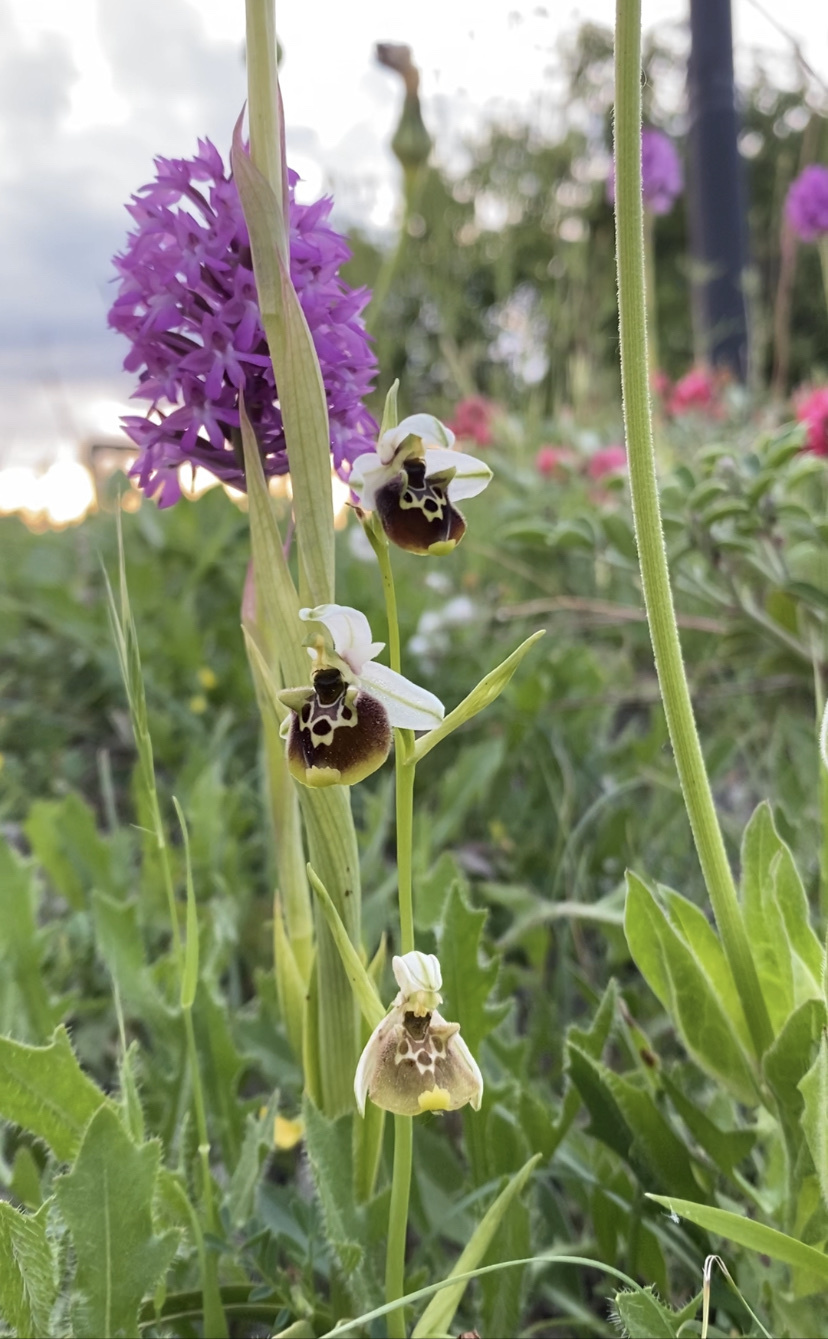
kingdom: Plantae
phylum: Tracheophyta
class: Liliopsida
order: Asparagales
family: Orchidaceae
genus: Ophrys
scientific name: Ophrys holosericea
